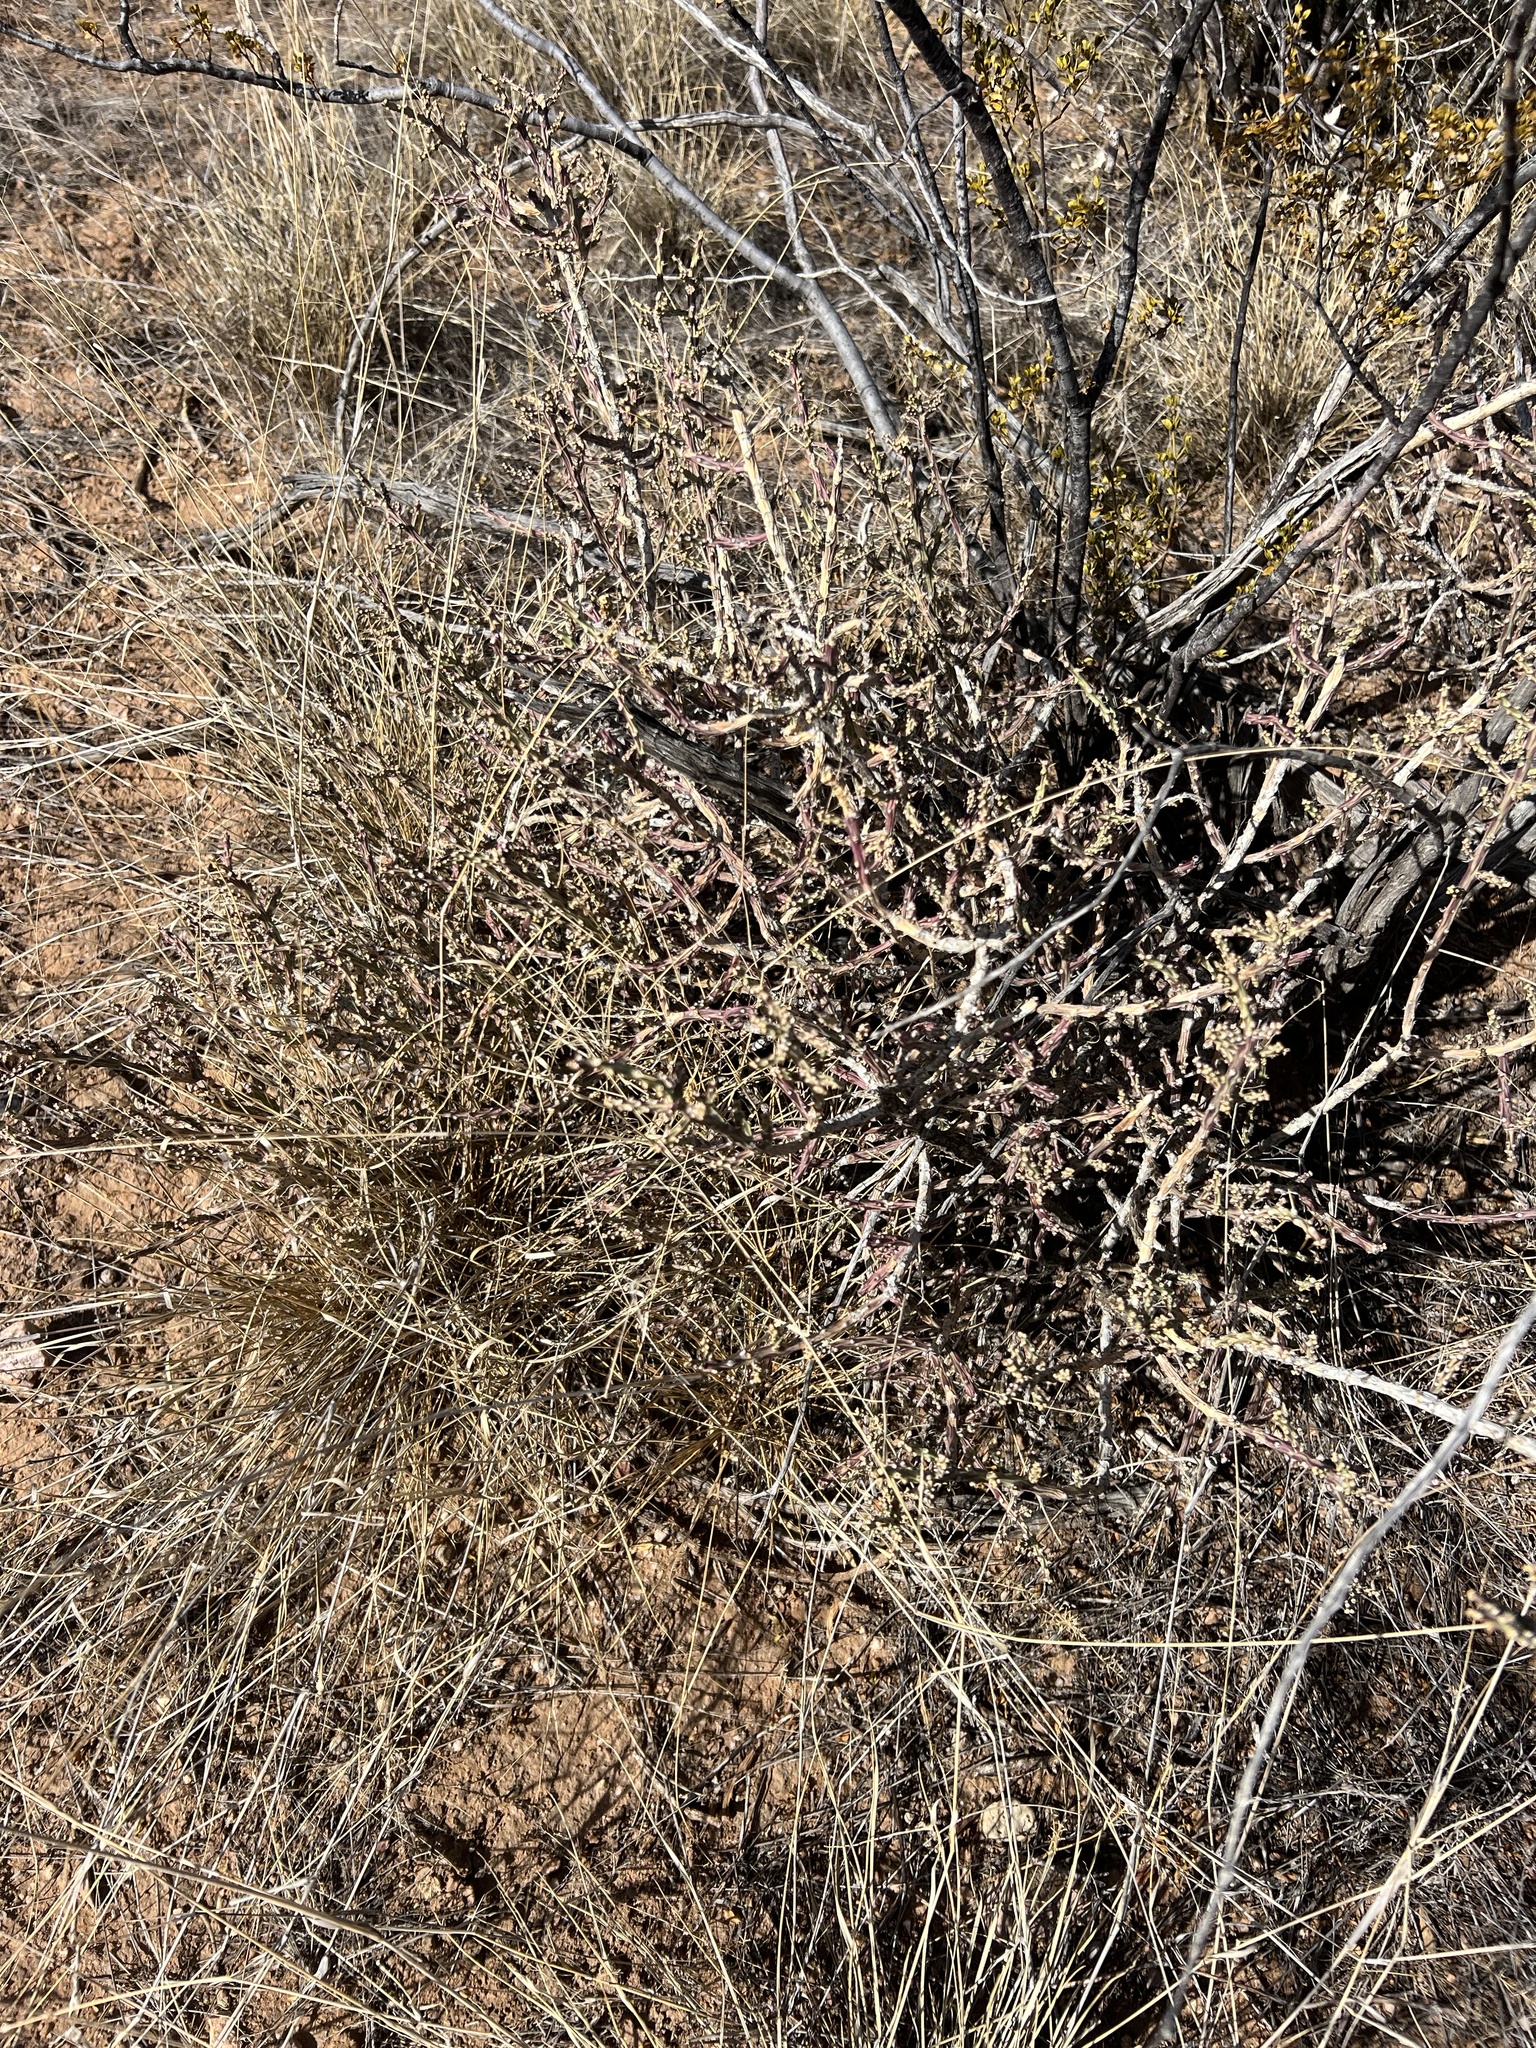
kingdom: Plantae
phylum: Tracheophyta
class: Magnoliopsida
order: Caryophyllales
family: Cactaceae
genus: Cylindropuntia
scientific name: Cylindropuntia leptocaulis
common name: Christmas cactus
